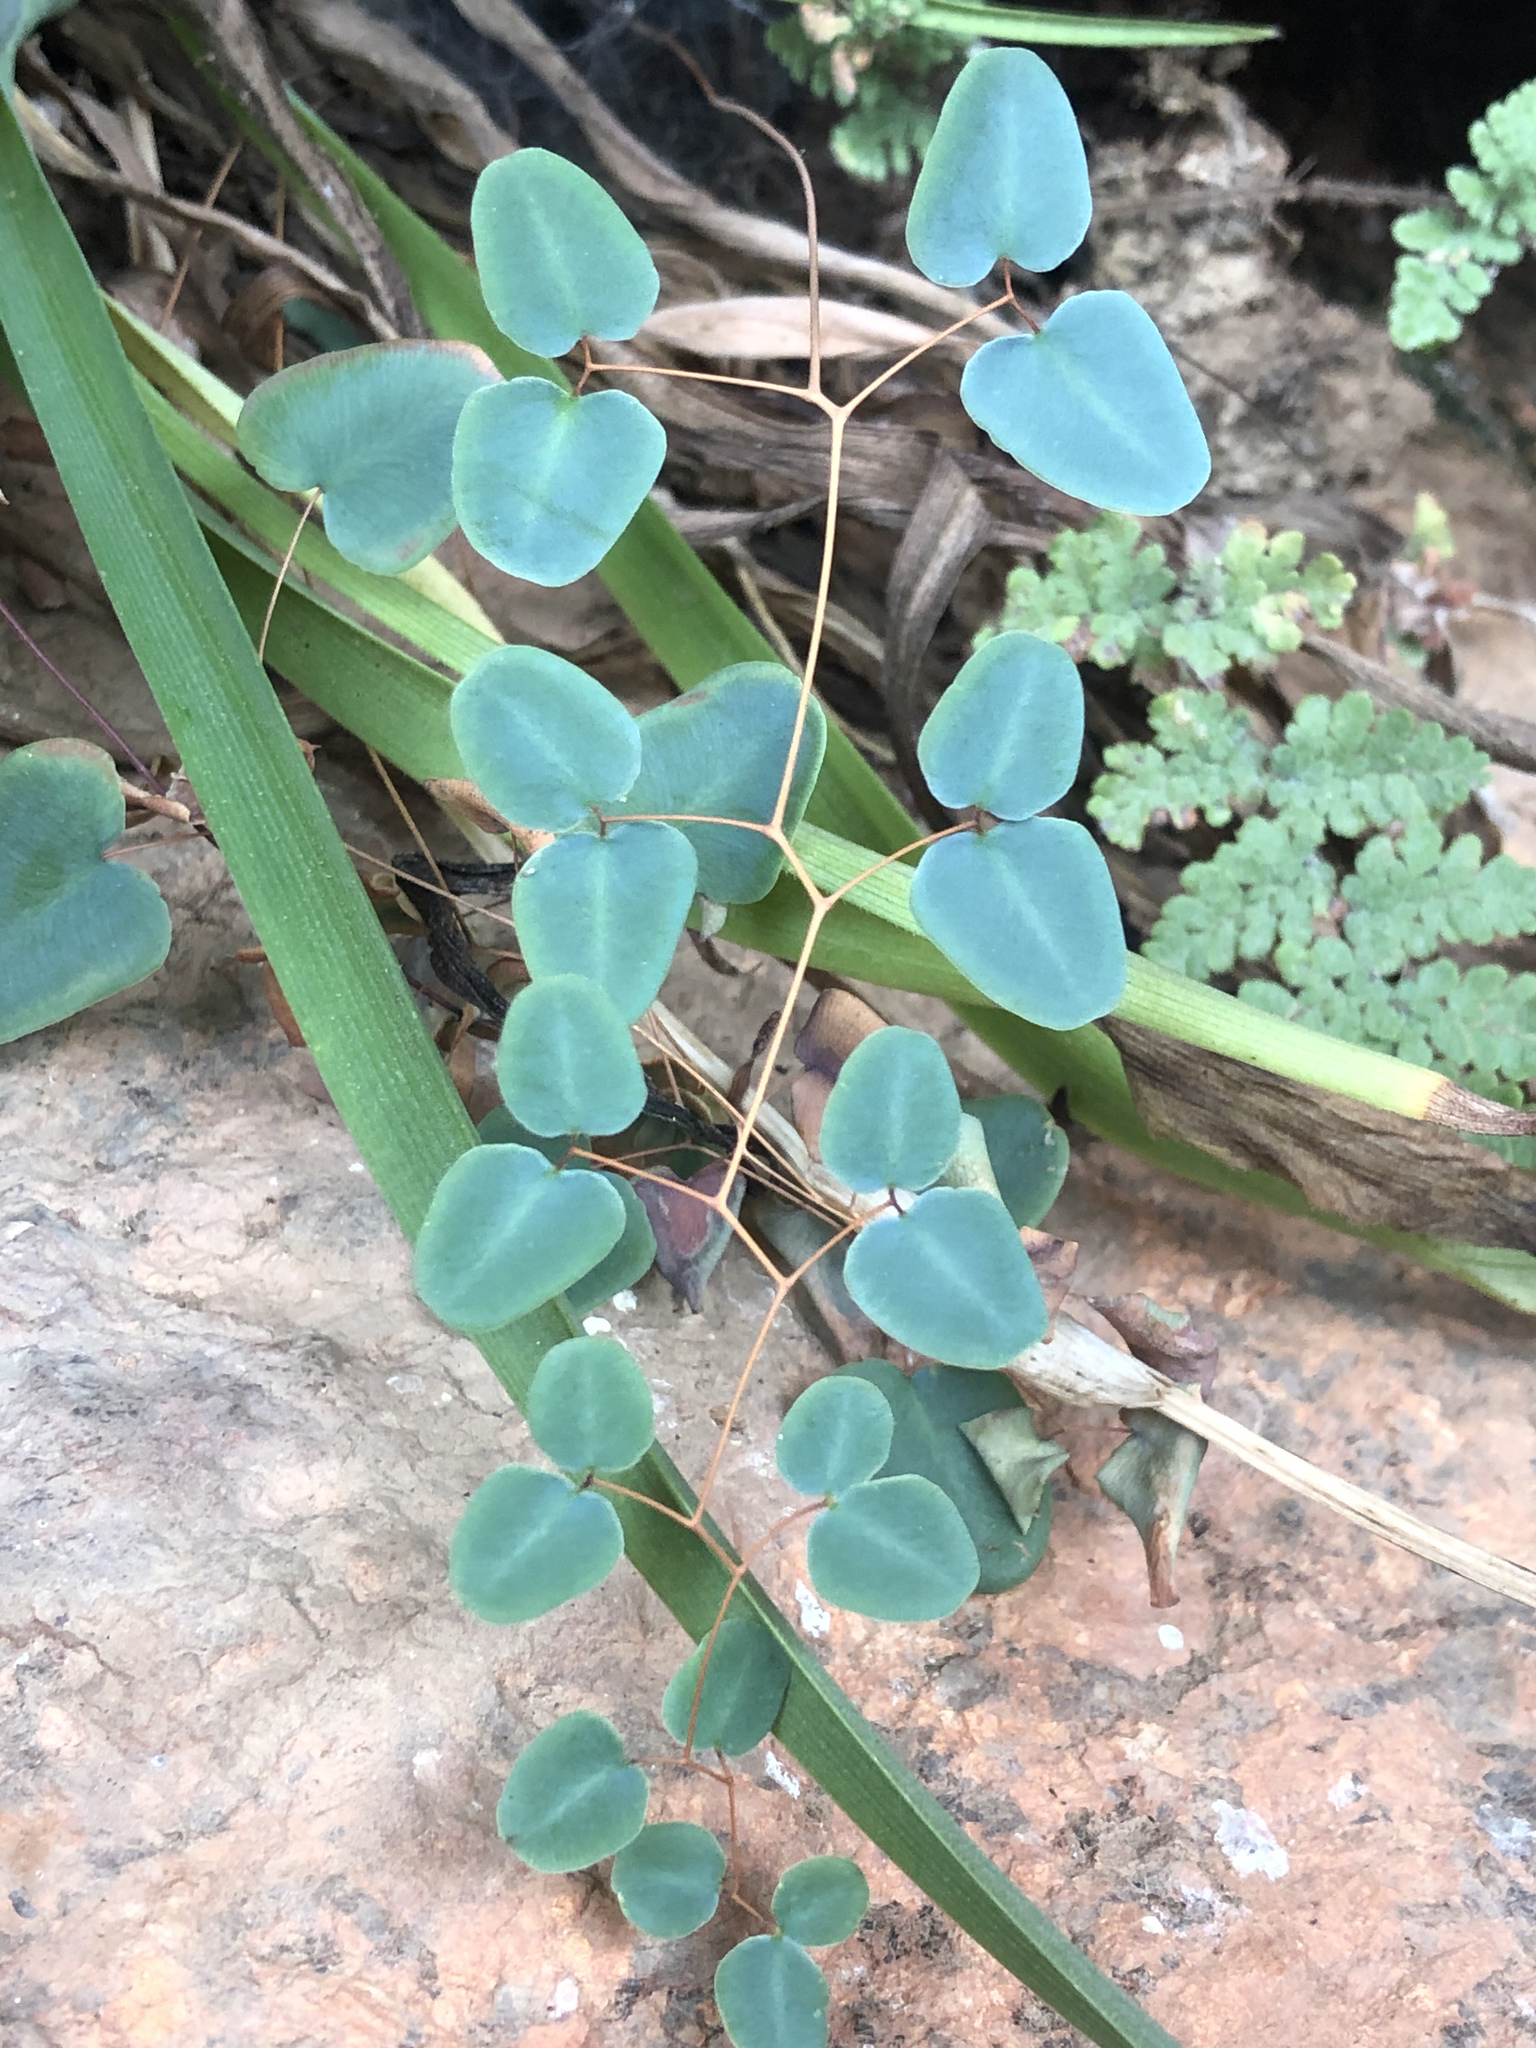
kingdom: Plantae
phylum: Tracheophyta
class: Polypodiopsida
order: Polypodiales
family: Pteridaceae
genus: Pellaea
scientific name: Pellaea ovata
